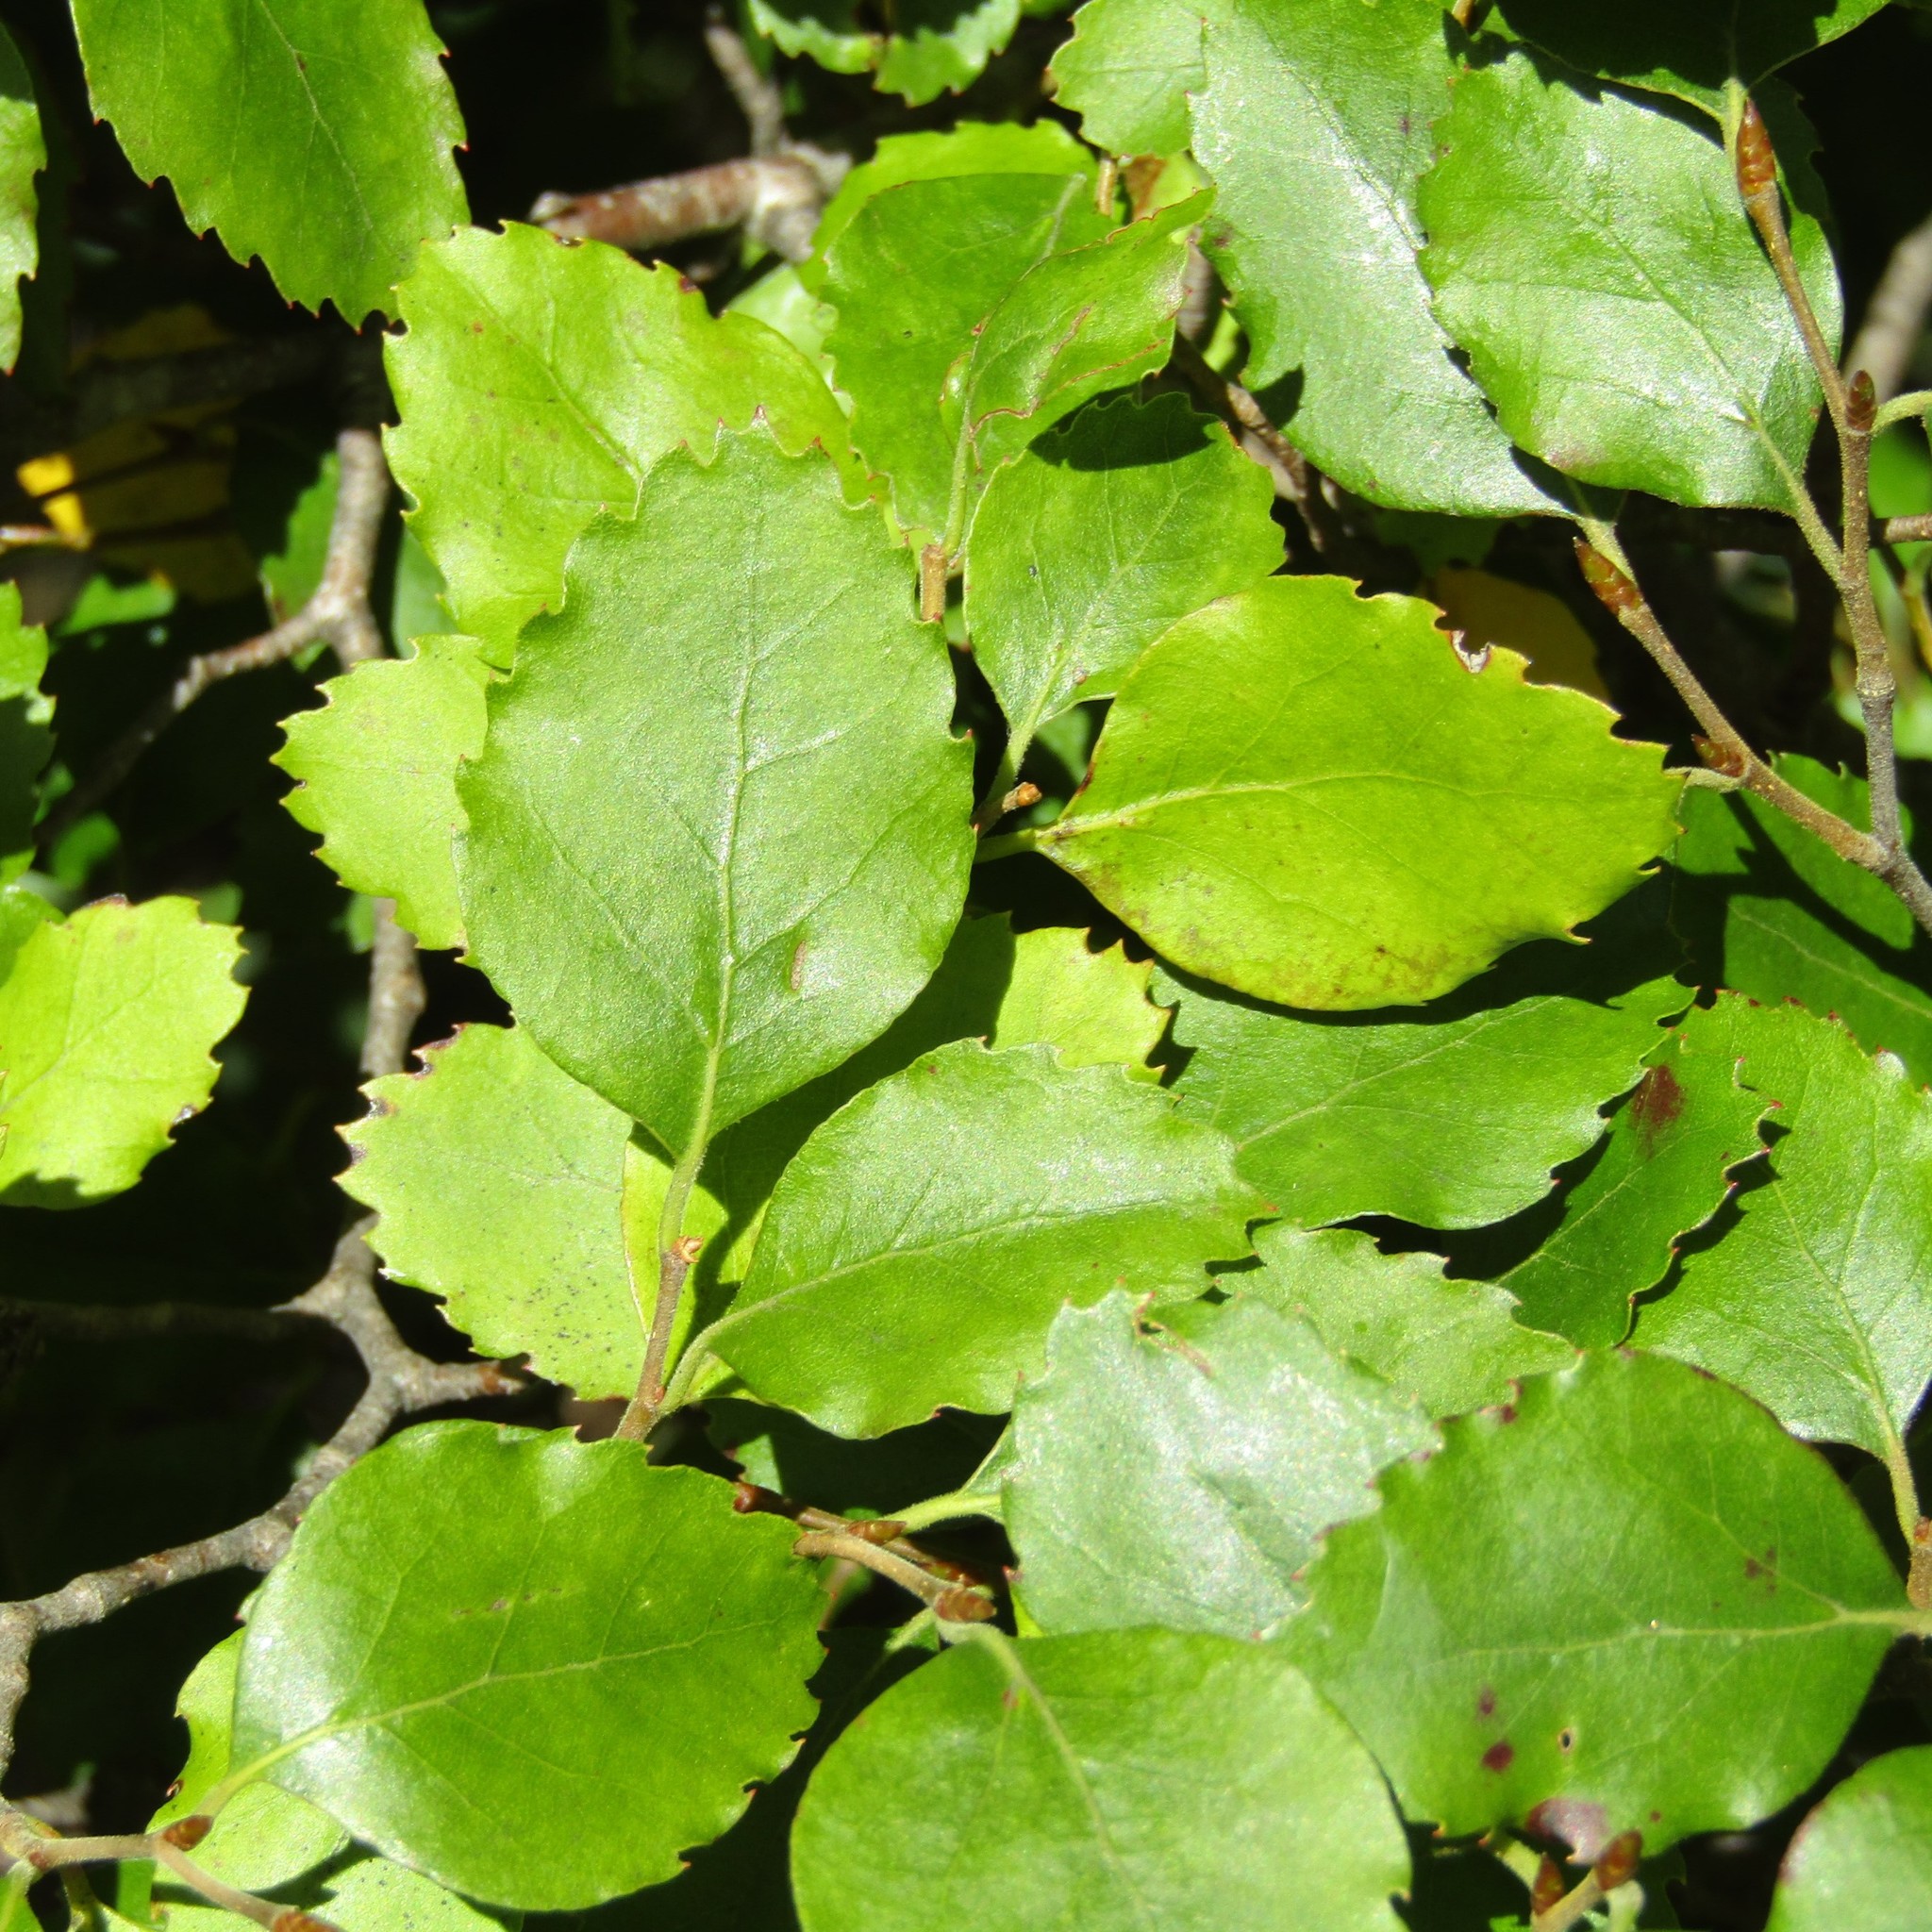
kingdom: Plantae
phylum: Tracheophyta
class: Magnoliopsida
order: Fagales
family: Nothofagaceae
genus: Nothofagus
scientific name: Nothofagus fusca
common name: Red beech
